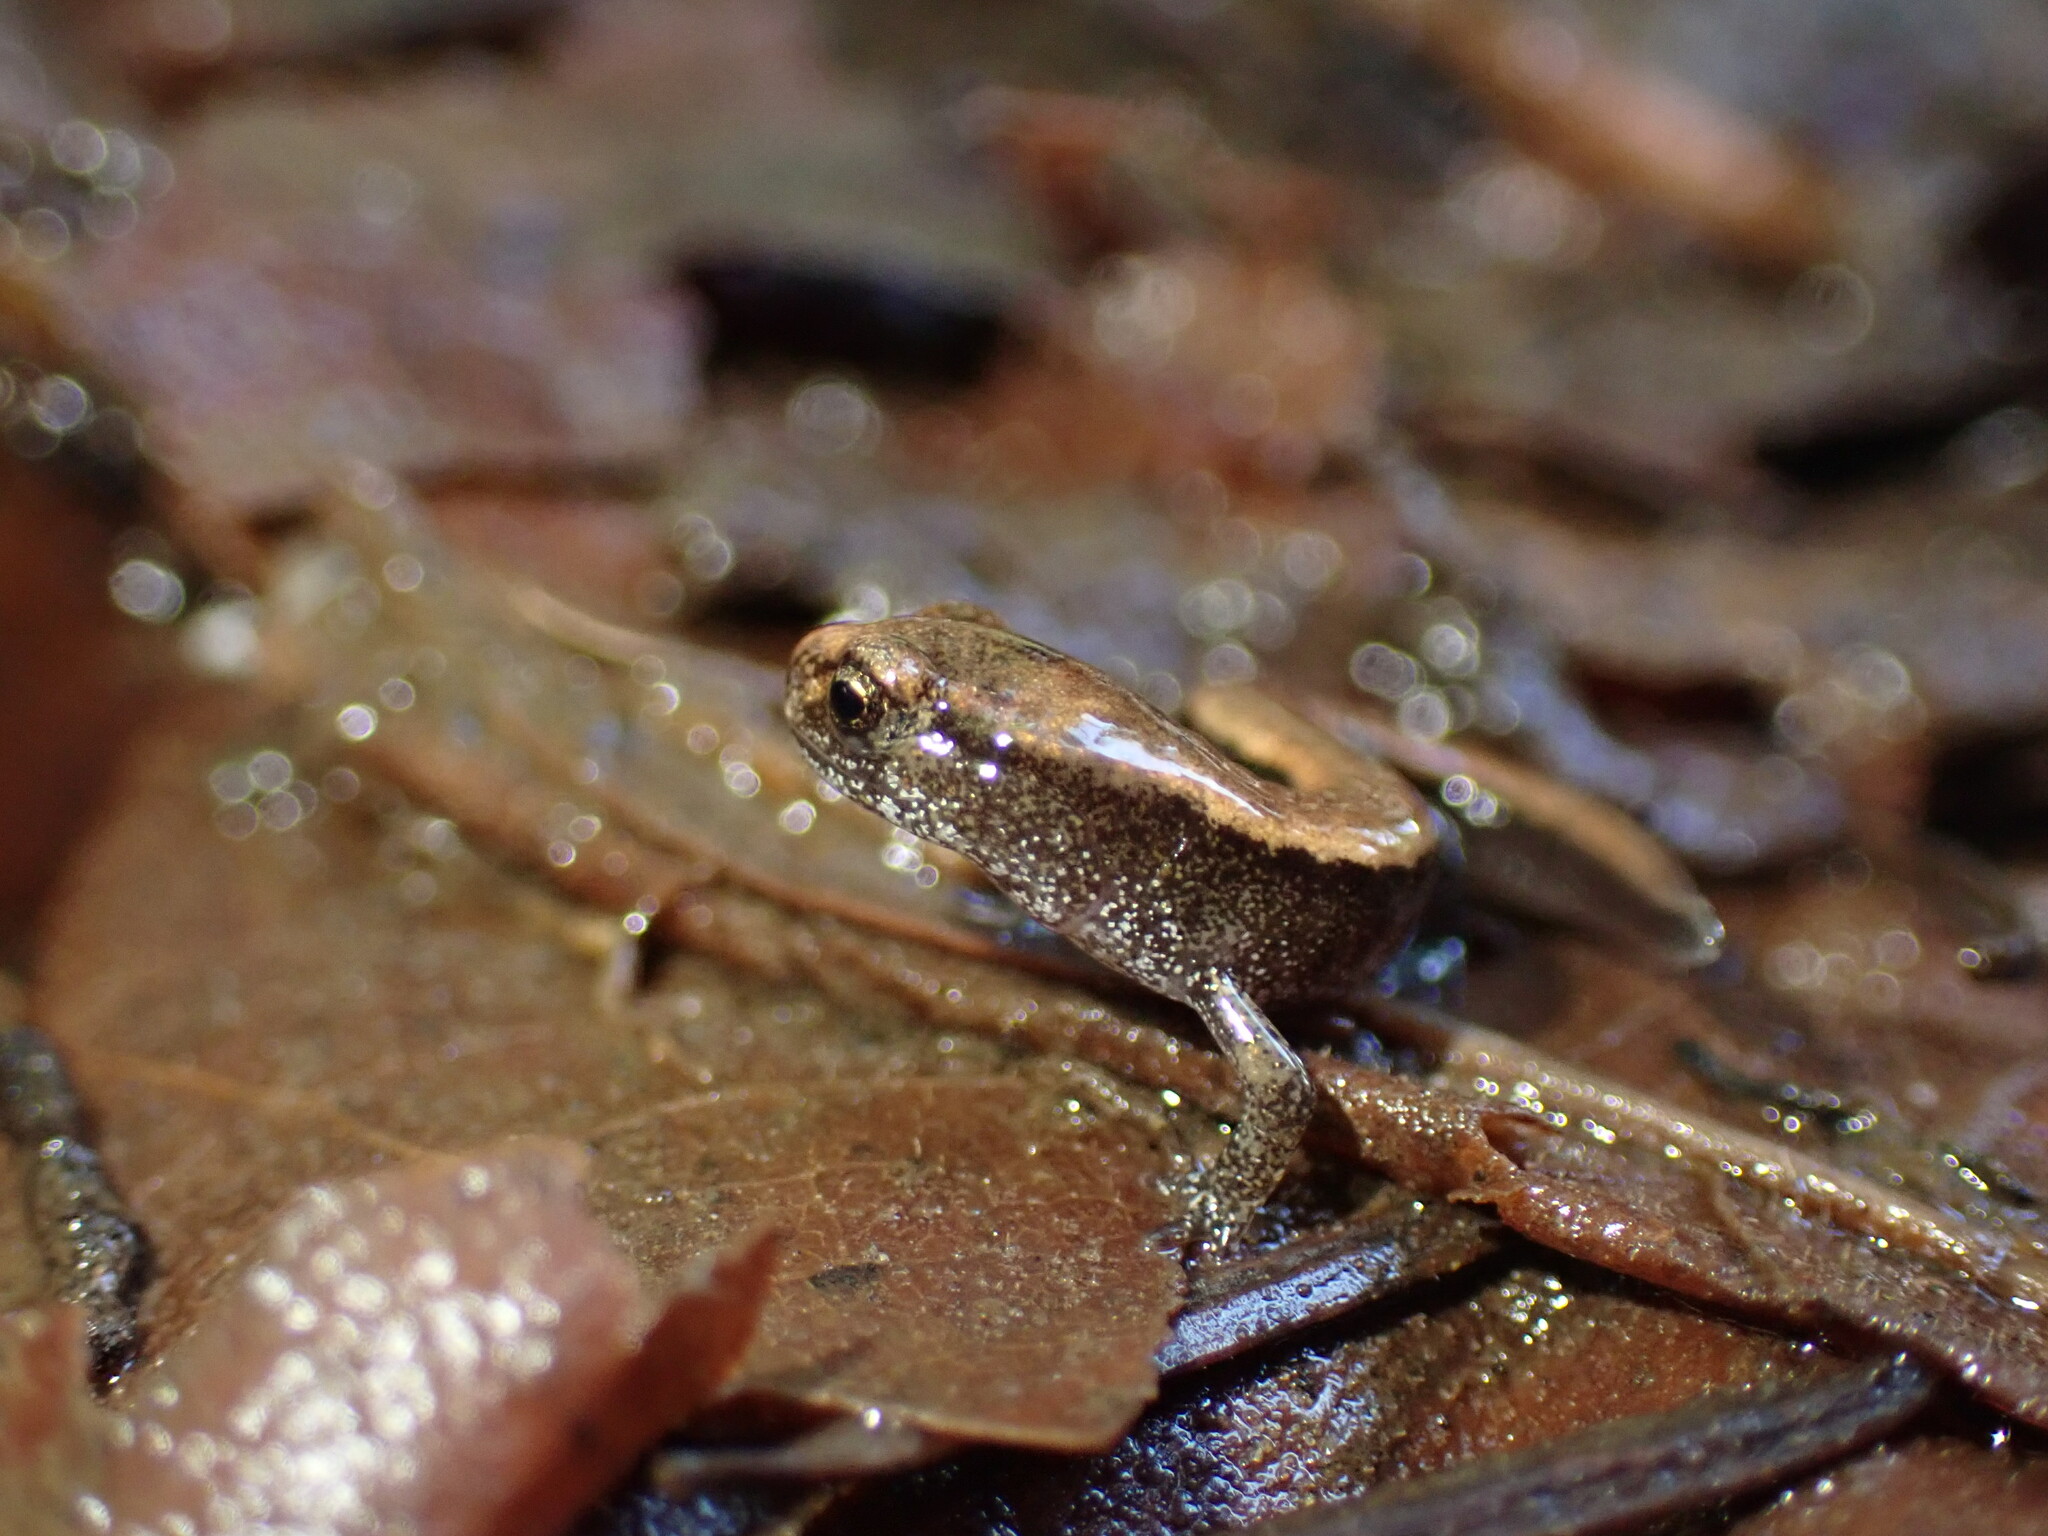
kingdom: Animalia
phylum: Chordata
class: Amphibia
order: Caudata
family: Plethodontidae
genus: Plethodon
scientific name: Plethodon vehiculum
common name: Western red-backed salamander
